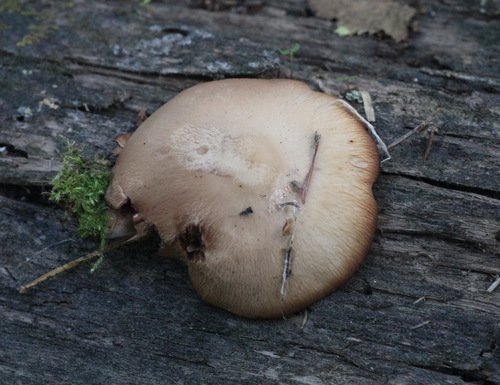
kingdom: Fungi
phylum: Basidiomycota
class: Agaricomycetes
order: Agaricales
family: Psathyrellaceae
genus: Typhrasa
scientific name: Typhrasa gossypina
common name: Wrinkled psathyrella
